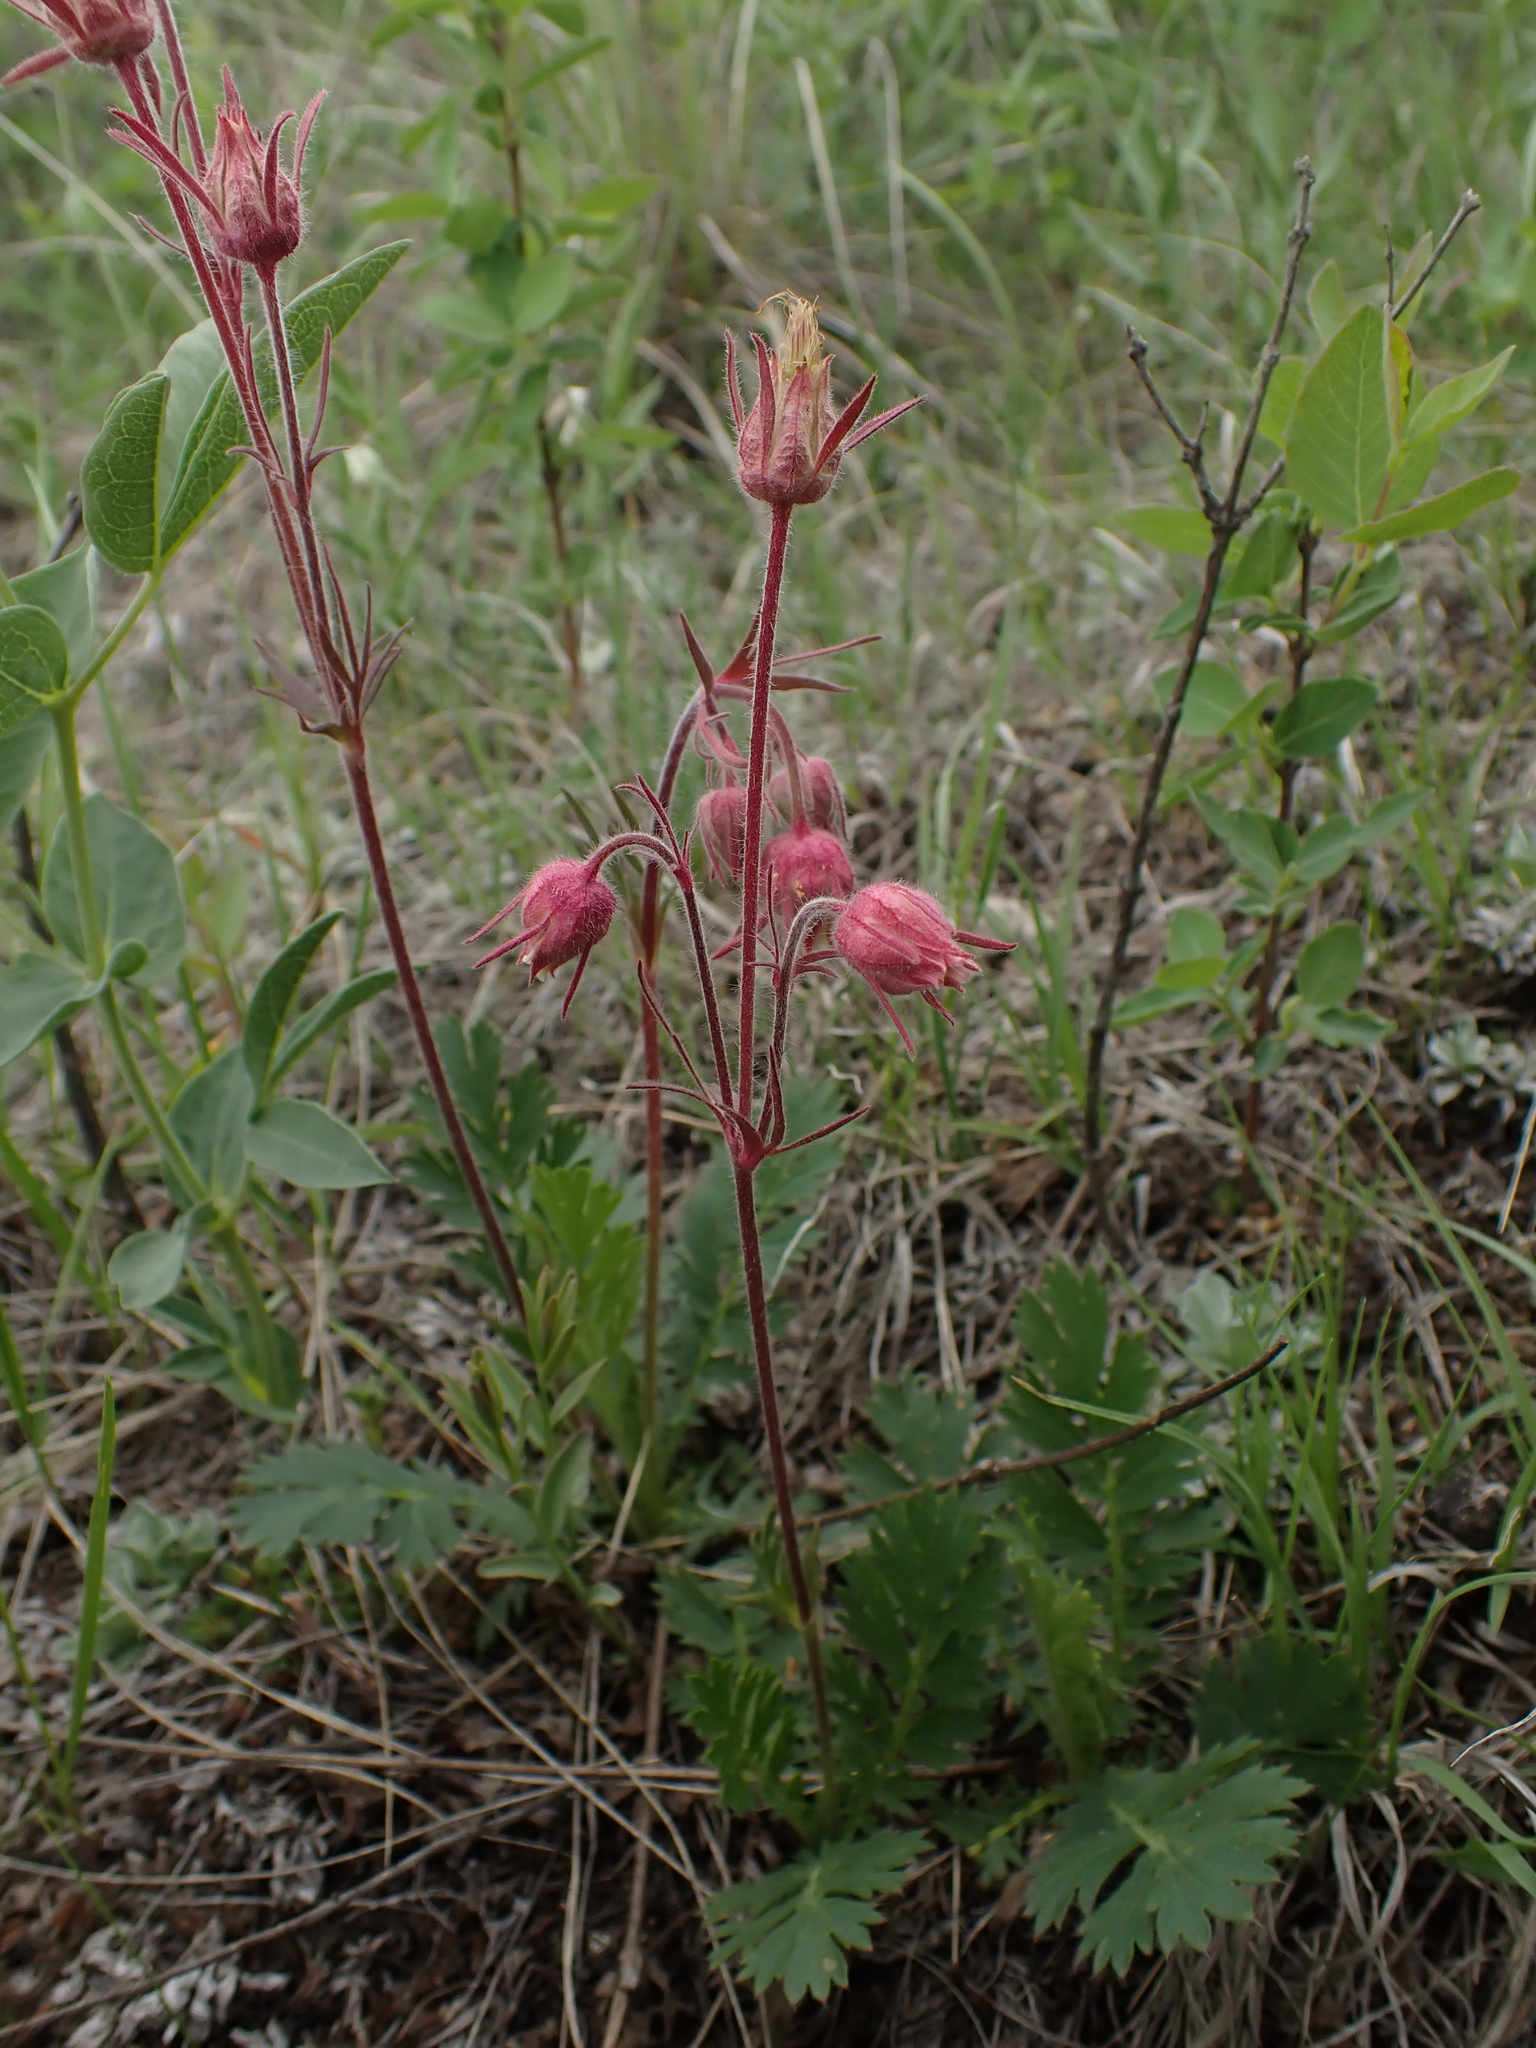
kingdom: Plantae
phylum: Tracheophyta
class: Magnoliopsida
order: Rosales
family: Rosaceae
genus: Geum
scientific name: Geum triflorum
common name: Old man's whiskers
